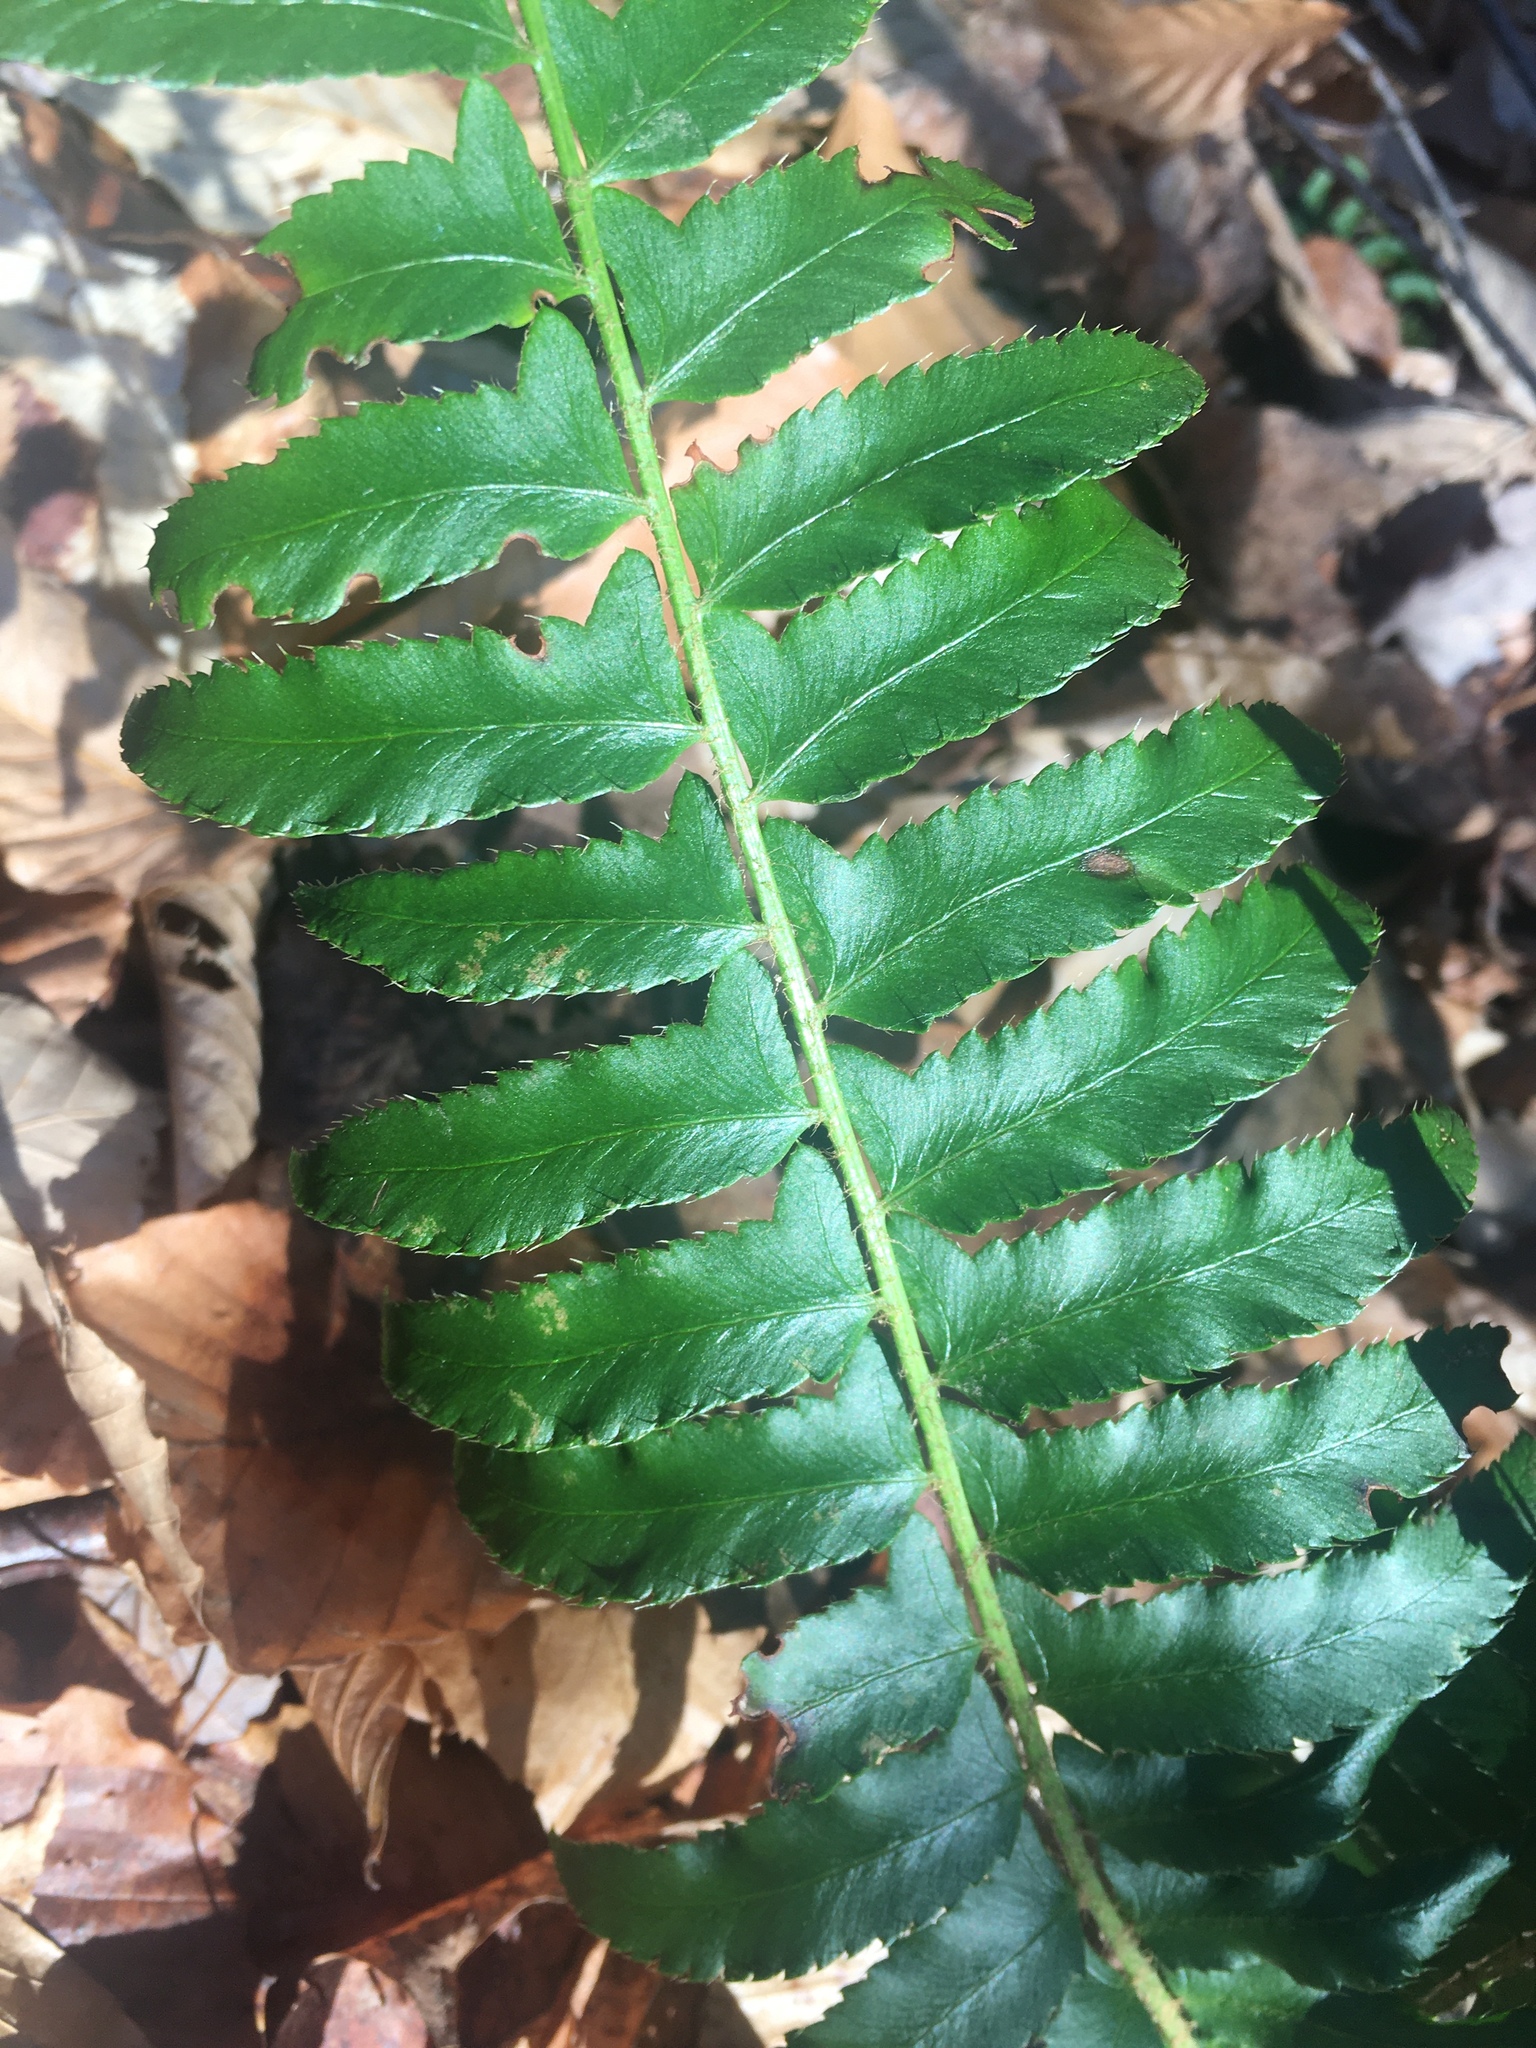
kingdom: Plantae
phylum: Tracheophyta
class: Polypodiopsida
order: Polypodiales
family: Dryopteridaceae
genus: Polystichum
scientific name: Polystichum acrostichoides
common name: Christmas fern
